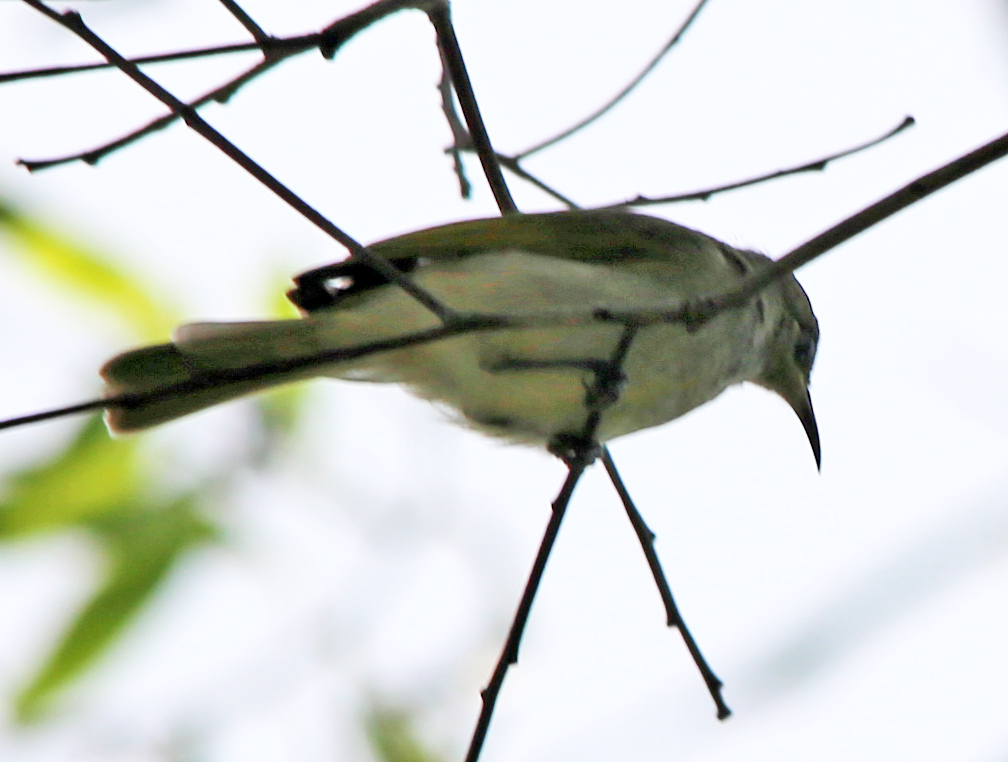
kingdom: Animalia
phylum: Chordata
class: Aves
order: Passeriformes
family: Meliphagidae
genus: Lichmera
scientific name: Lichmera indistincta
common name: Brown honeyeater
